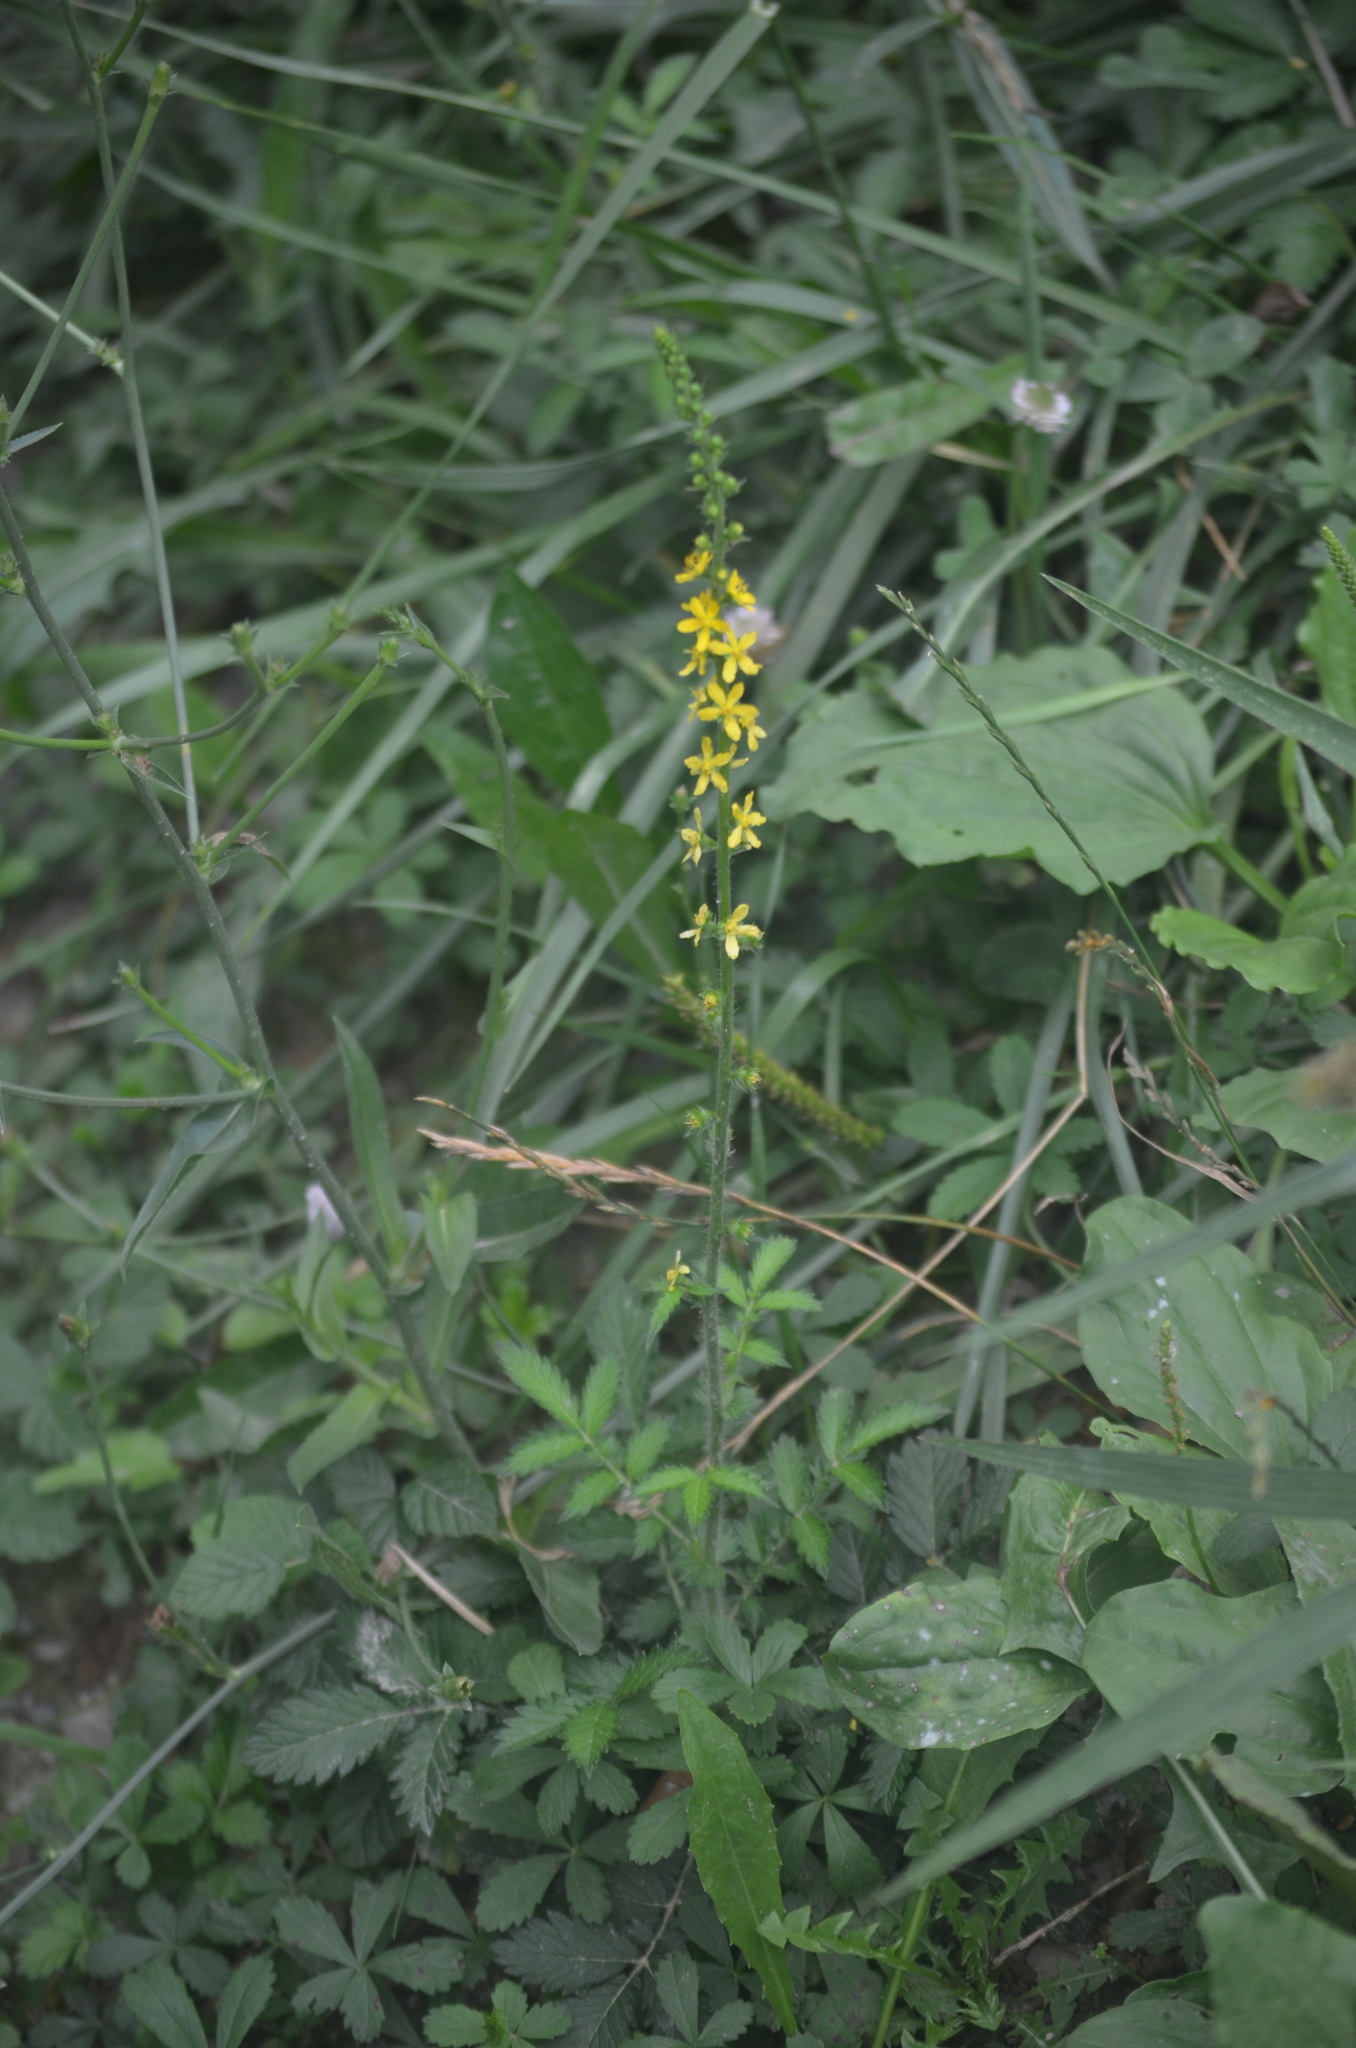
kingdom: Plantae
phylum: Tracheophyta
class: Magnoliopsida
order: Rosales
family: Rosaceae
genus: Agrimonia
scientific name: Agrimonia eupatoria
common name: Agrimony
